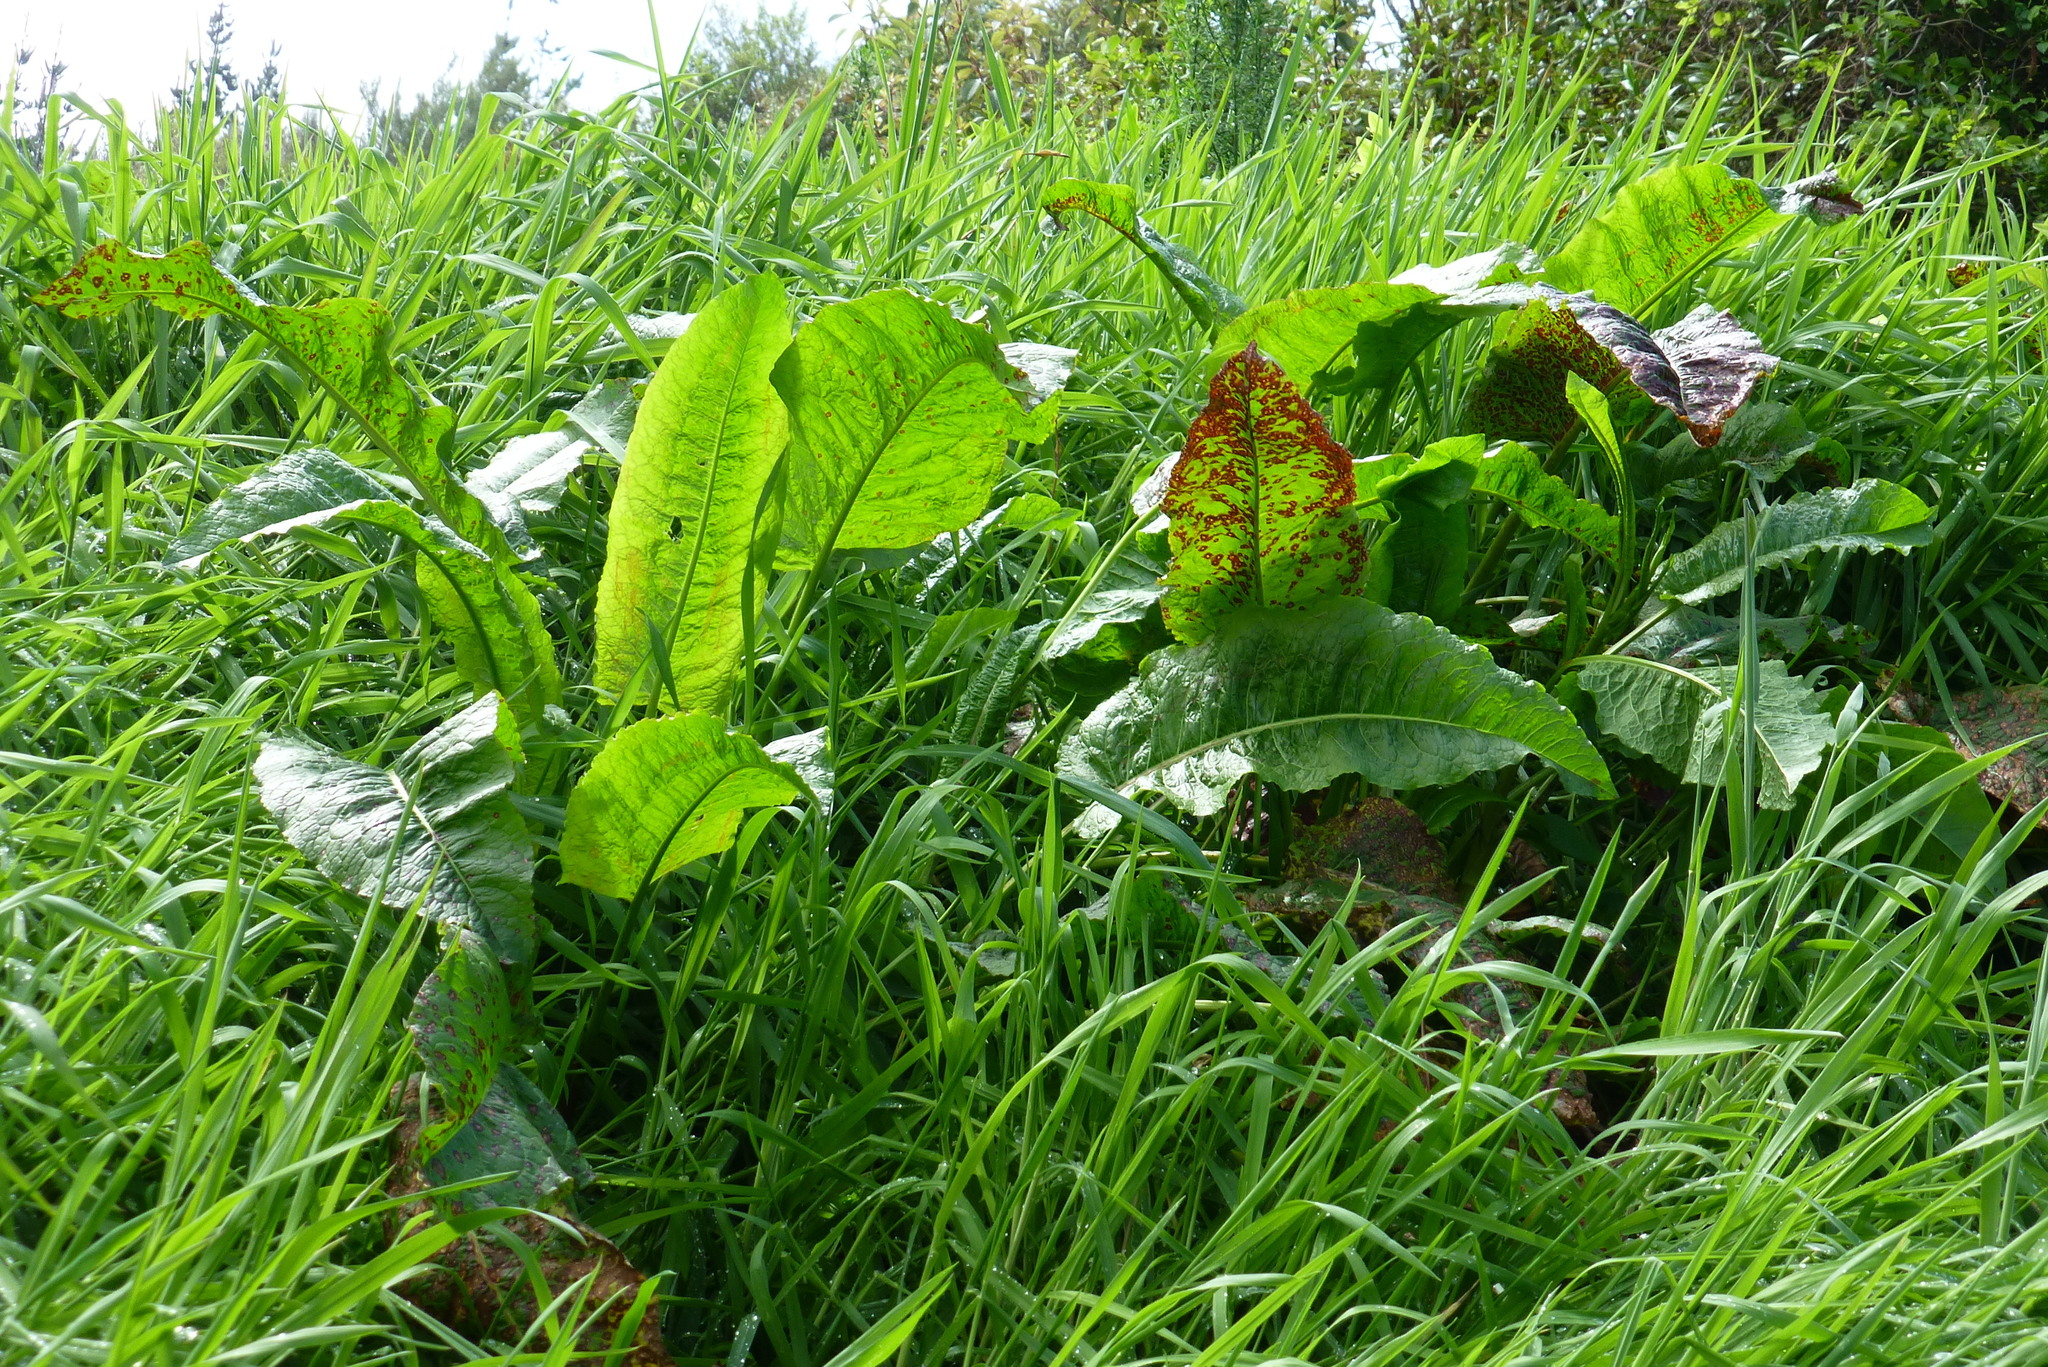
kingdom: Plantae
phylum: Tracheophyta
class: Magnoliopsida
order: Caryophyllales
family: Polygonaceae
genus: Rumex
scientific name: Rumex obtusifolius
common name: Bitter dock
